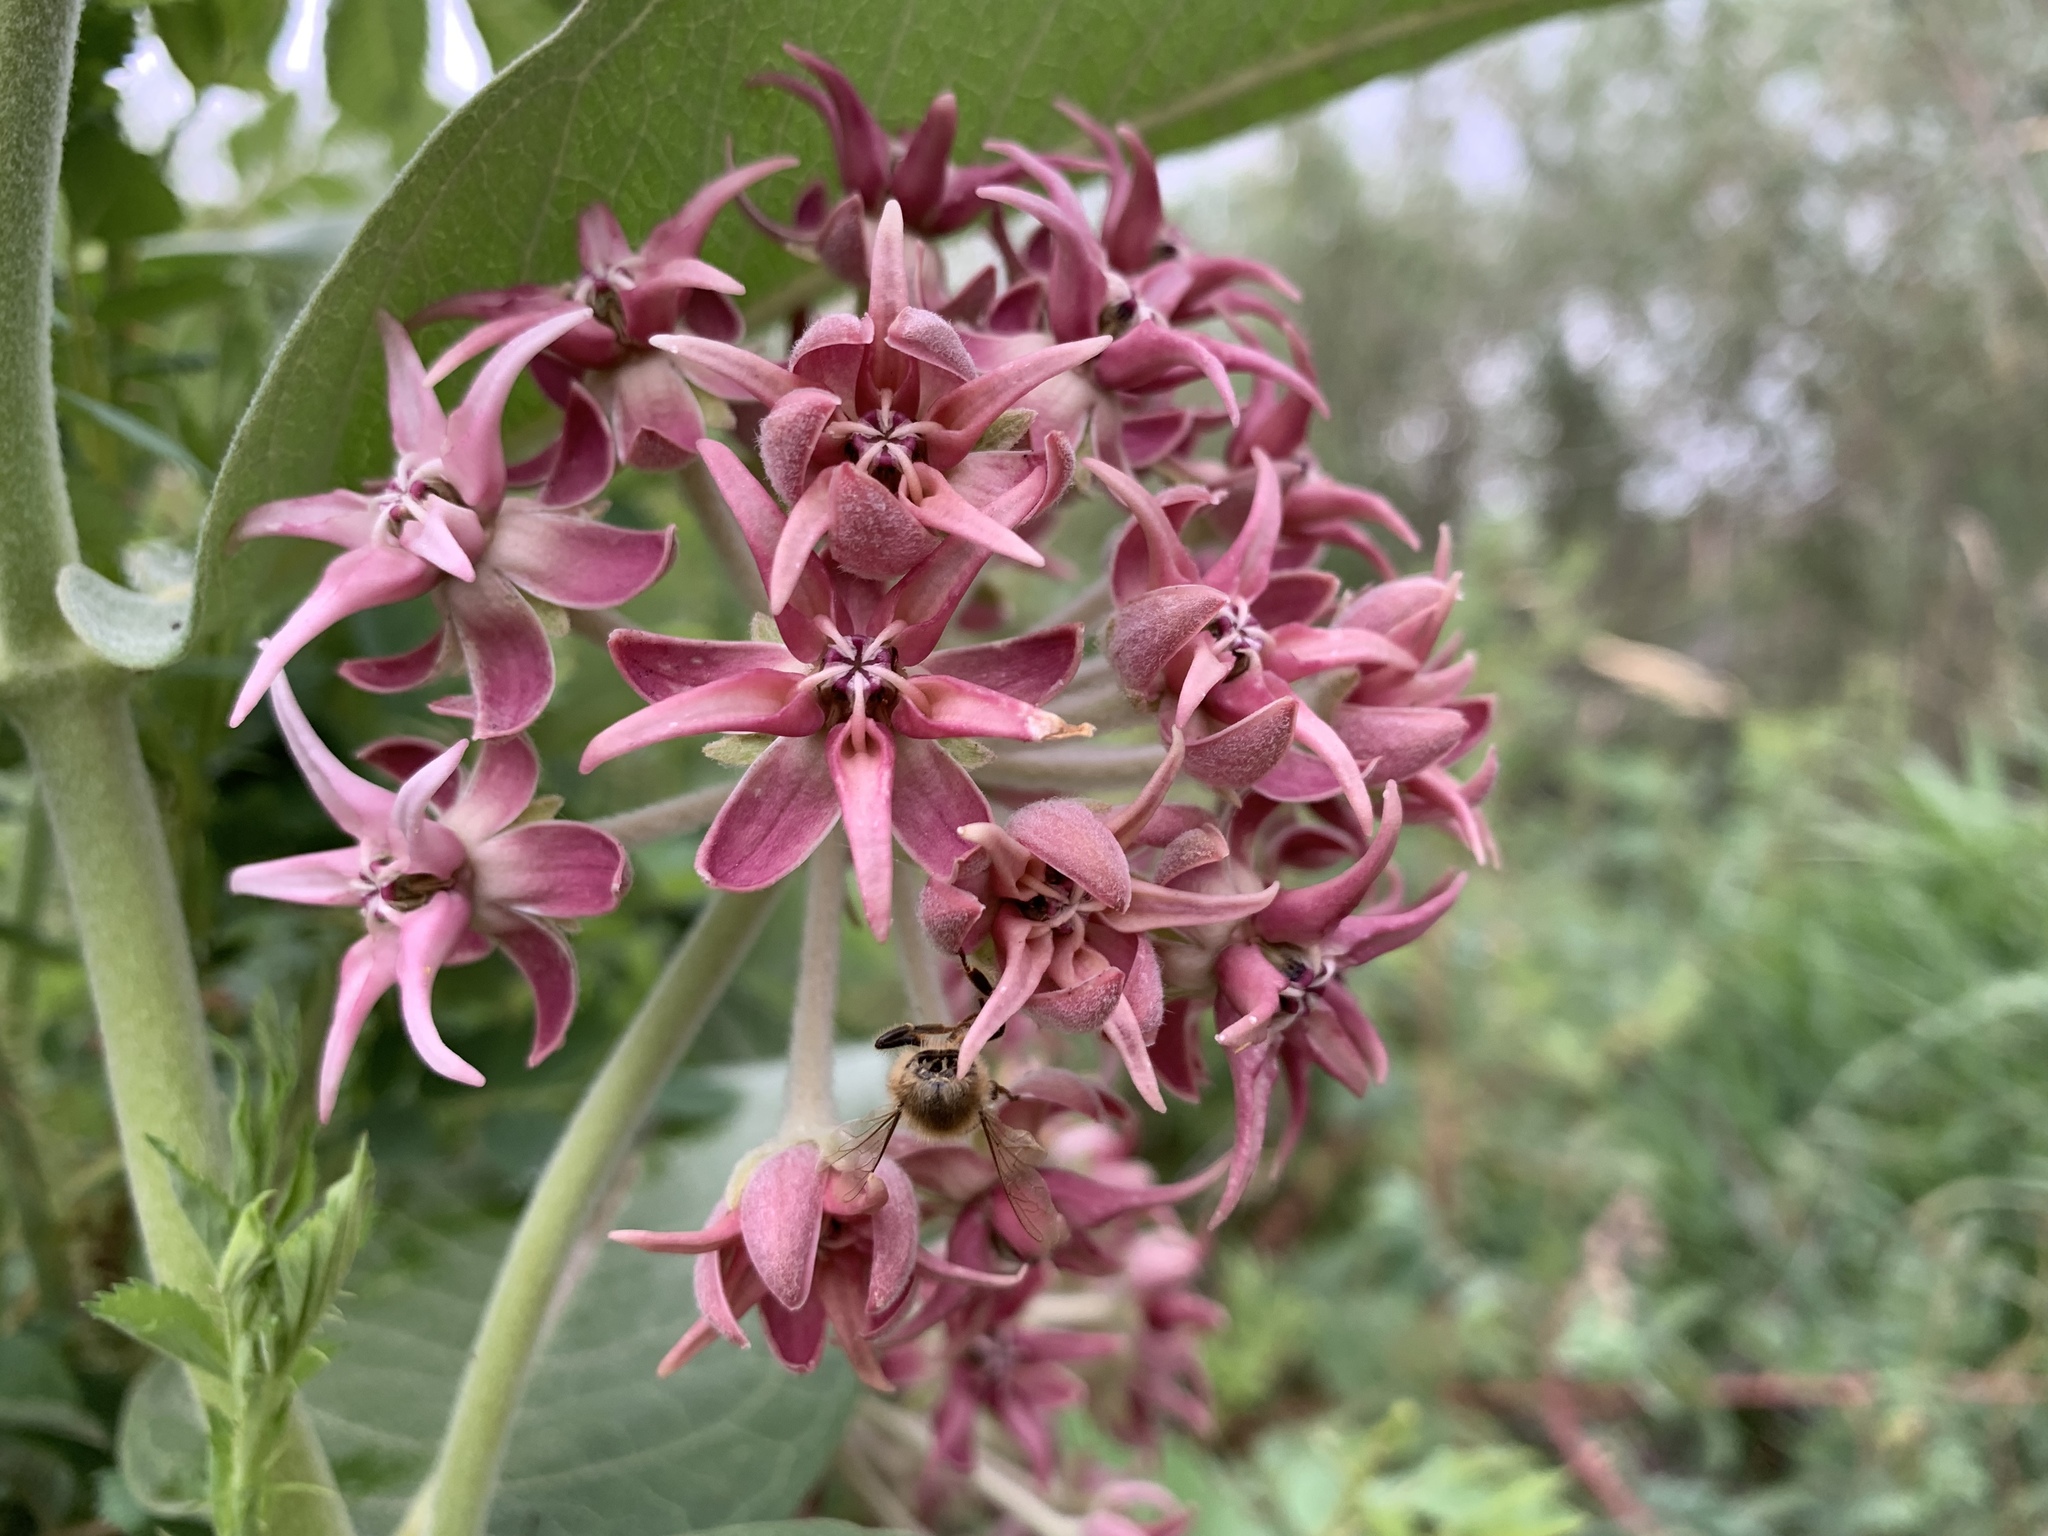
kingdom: Plantae
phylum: Tracheophyta
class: Magnoliopsida
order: Gentianales
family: Apocynaceae
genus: Asclepias
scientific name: Asclepias speciosa
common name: Showy milkweed
